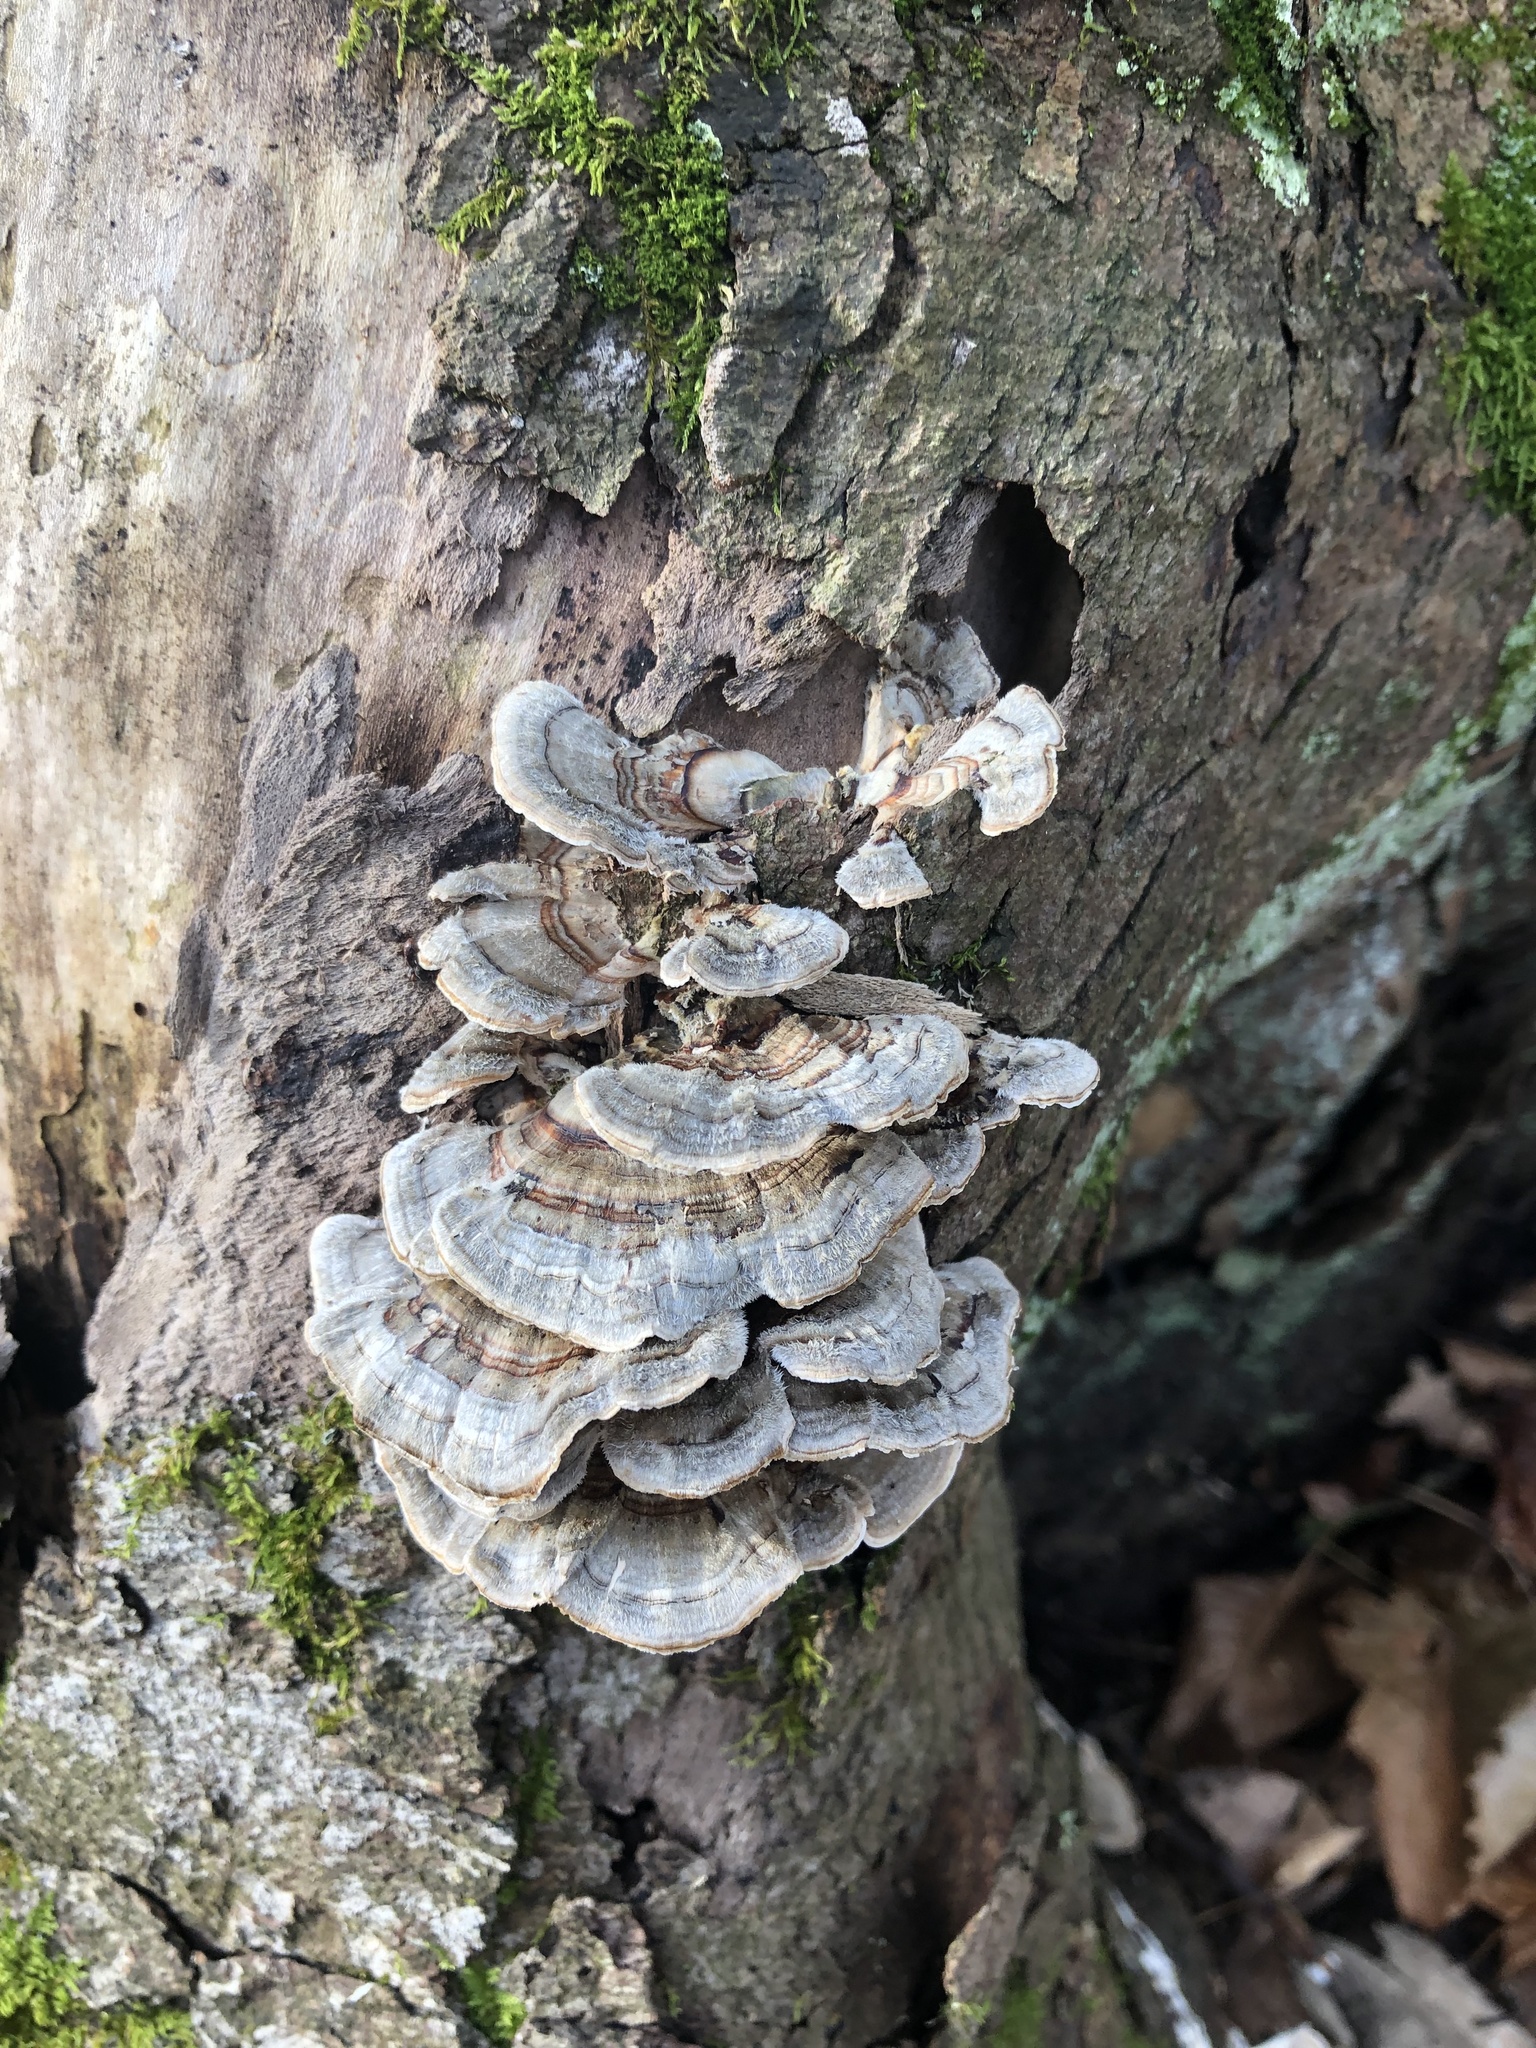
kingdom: Fungi
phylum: Basidiomycota
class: Agaricomycetes
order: Polyporales
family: Polyporaceae
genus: Trametes
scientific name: Trametes versicolor
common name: Turkeytail
